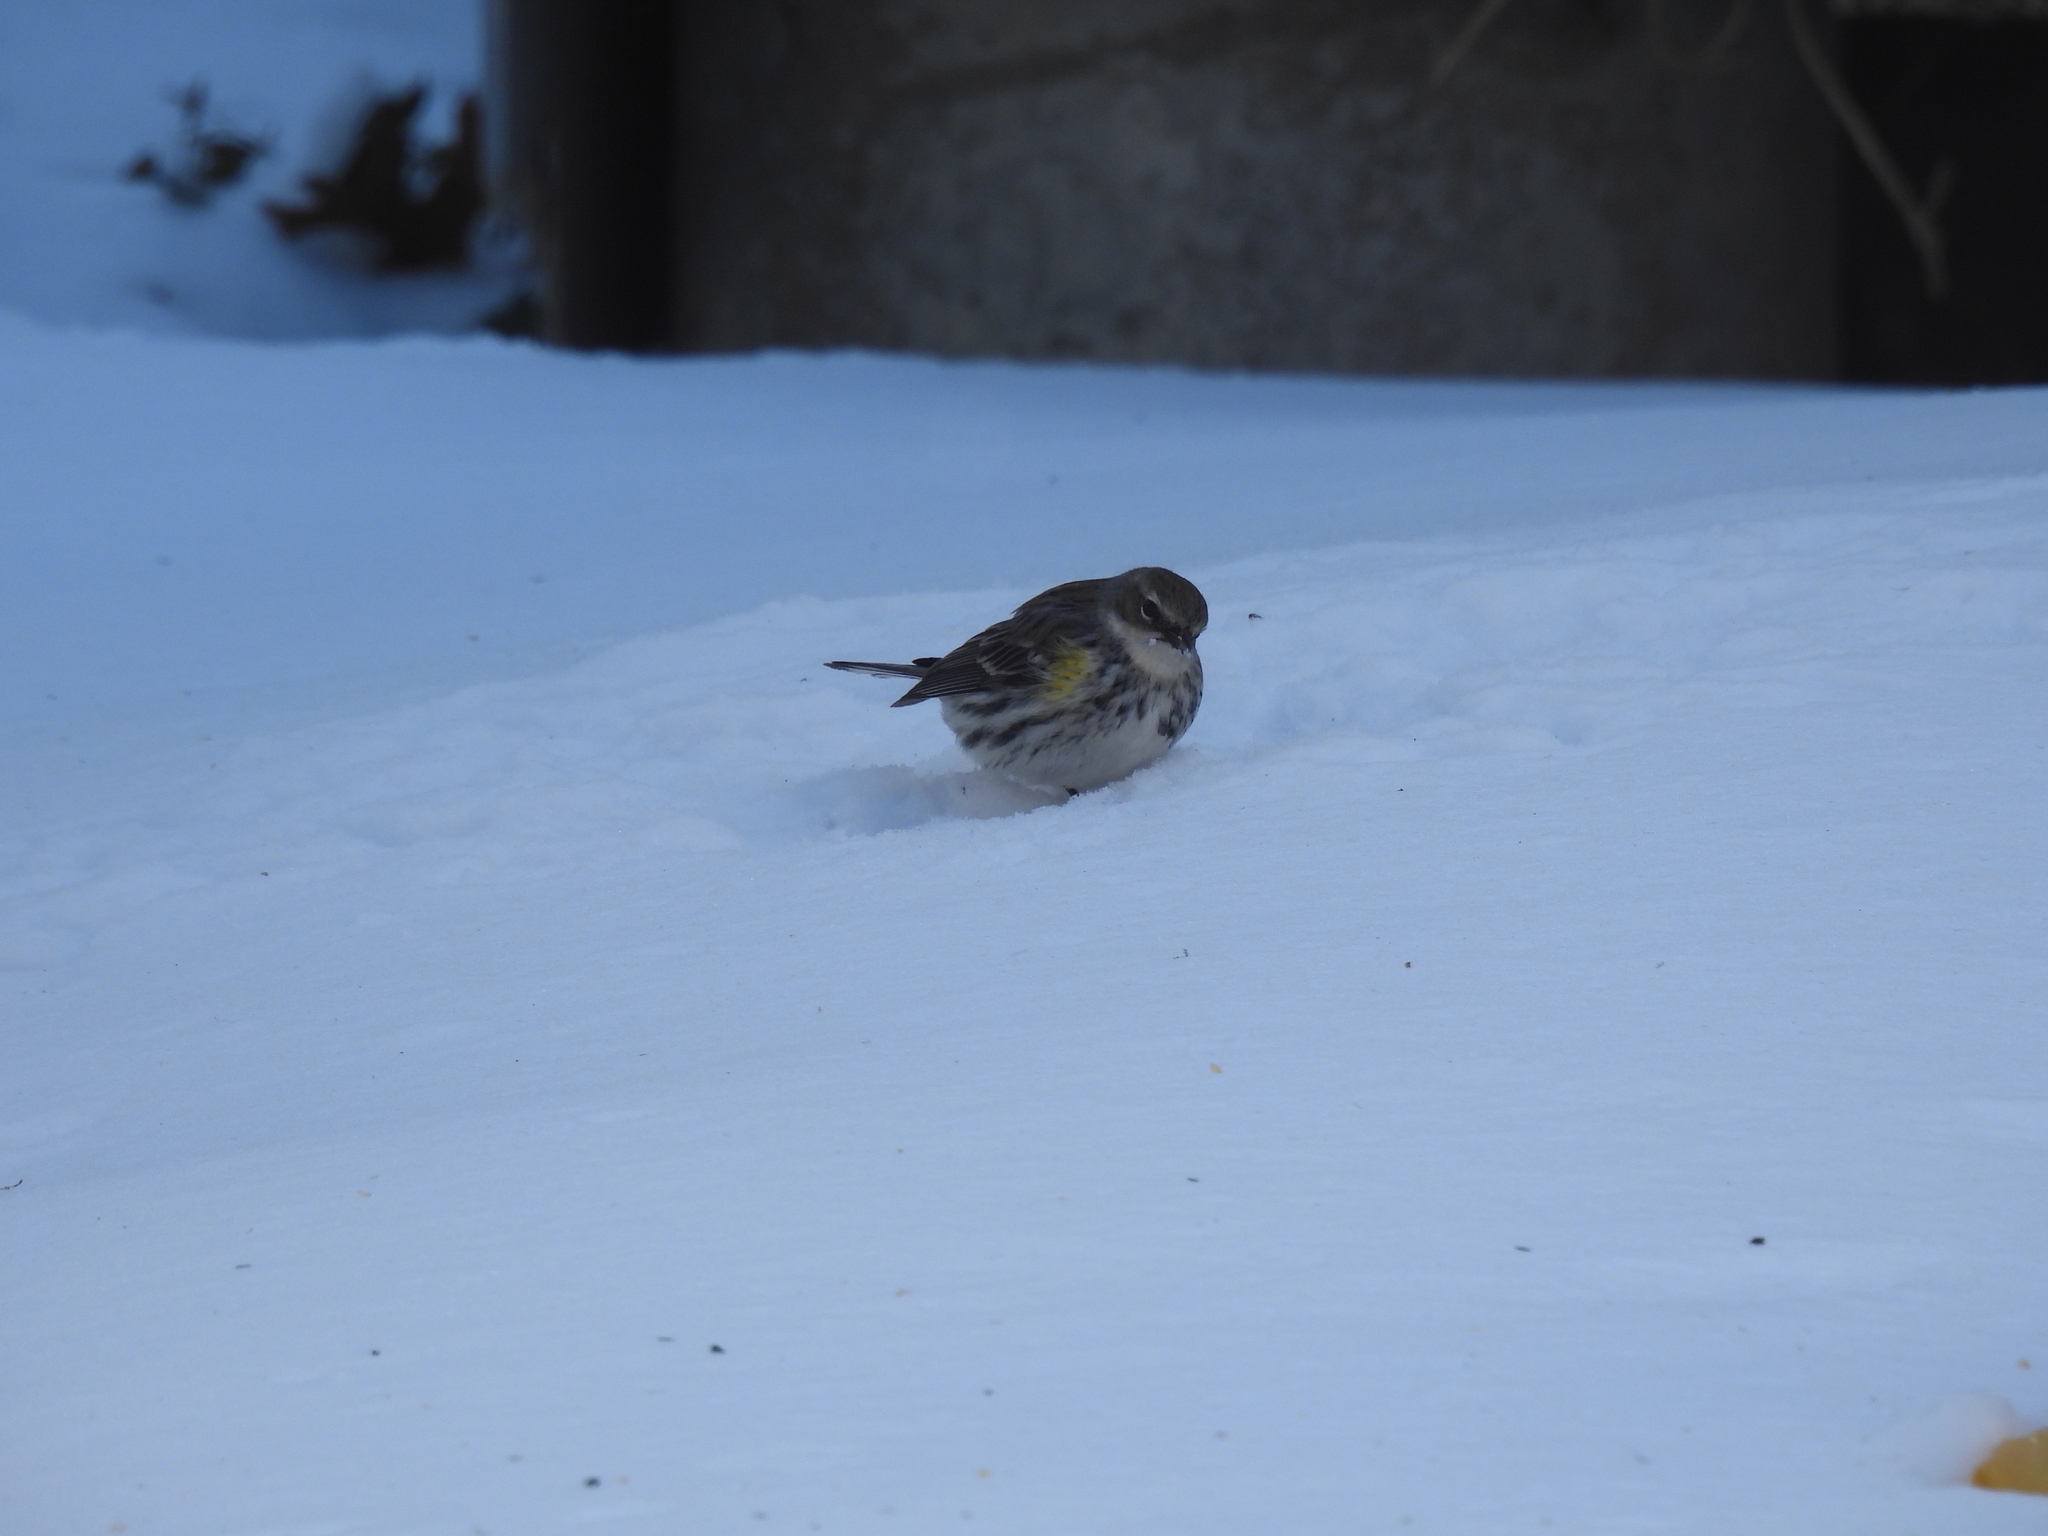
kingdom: Animalia
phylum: Chordata
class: Aves
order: Passeriformes
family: Parulidae
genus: Setophaga
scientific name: Setophaga coronata
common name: Myrtle warbler
